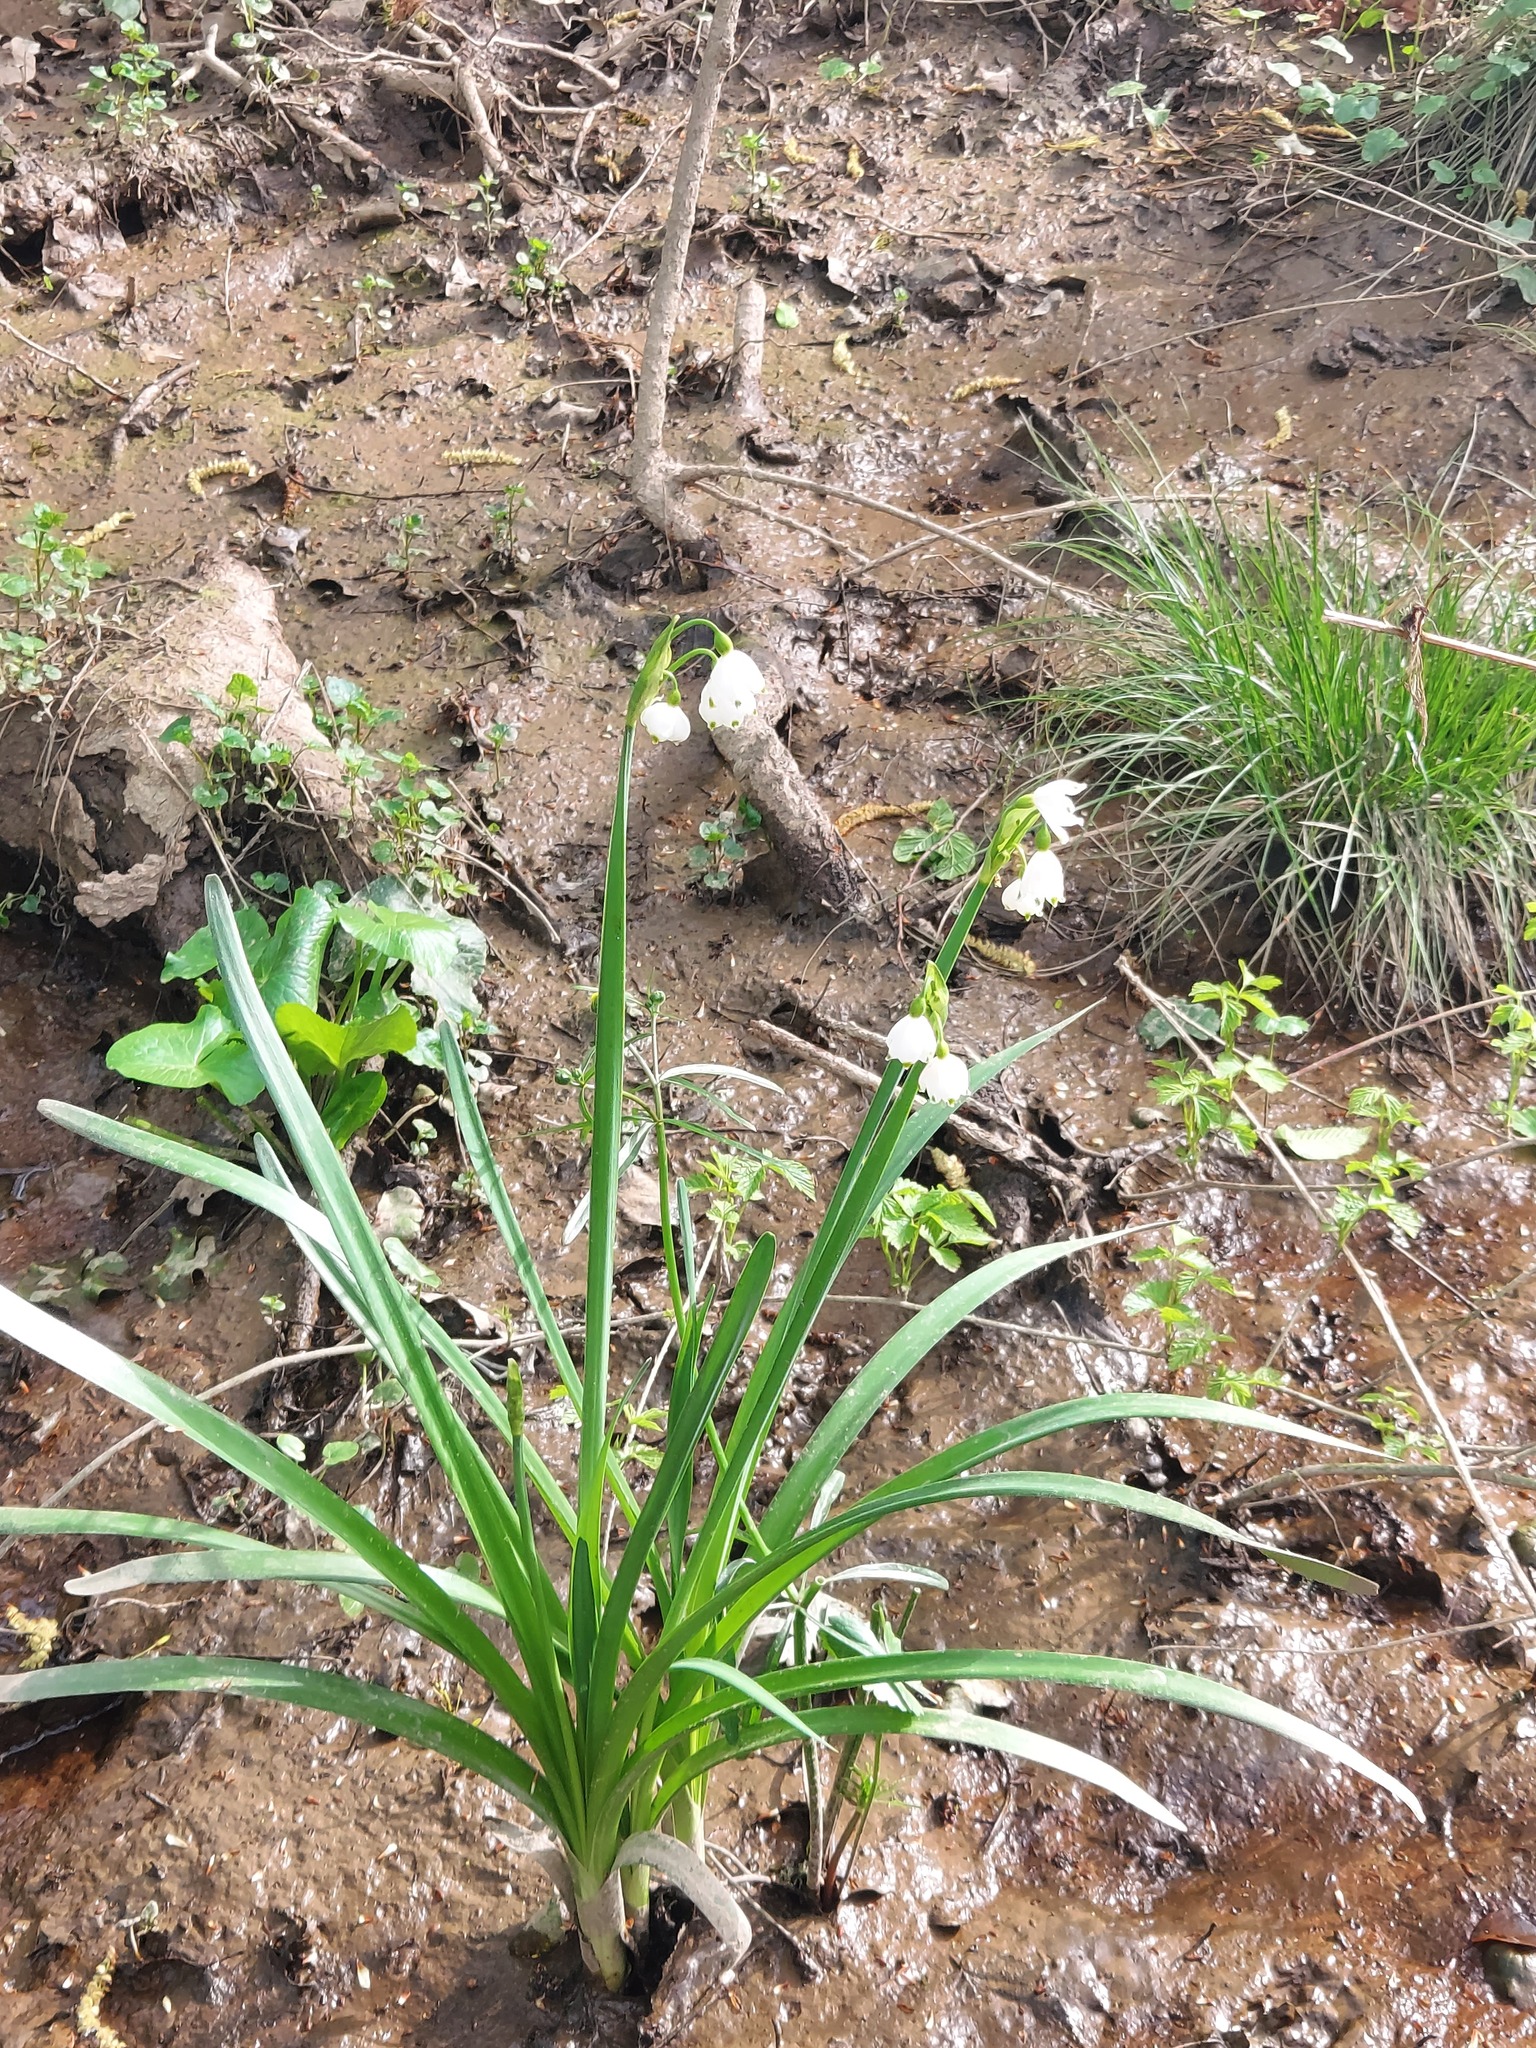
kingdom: Plantae
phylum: Tracheophyta
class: Liliopsida
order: Asparagales
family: Amaryllidaceae
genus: Leucojum
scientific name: Leucojum aestivum
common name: Summer snowflake
